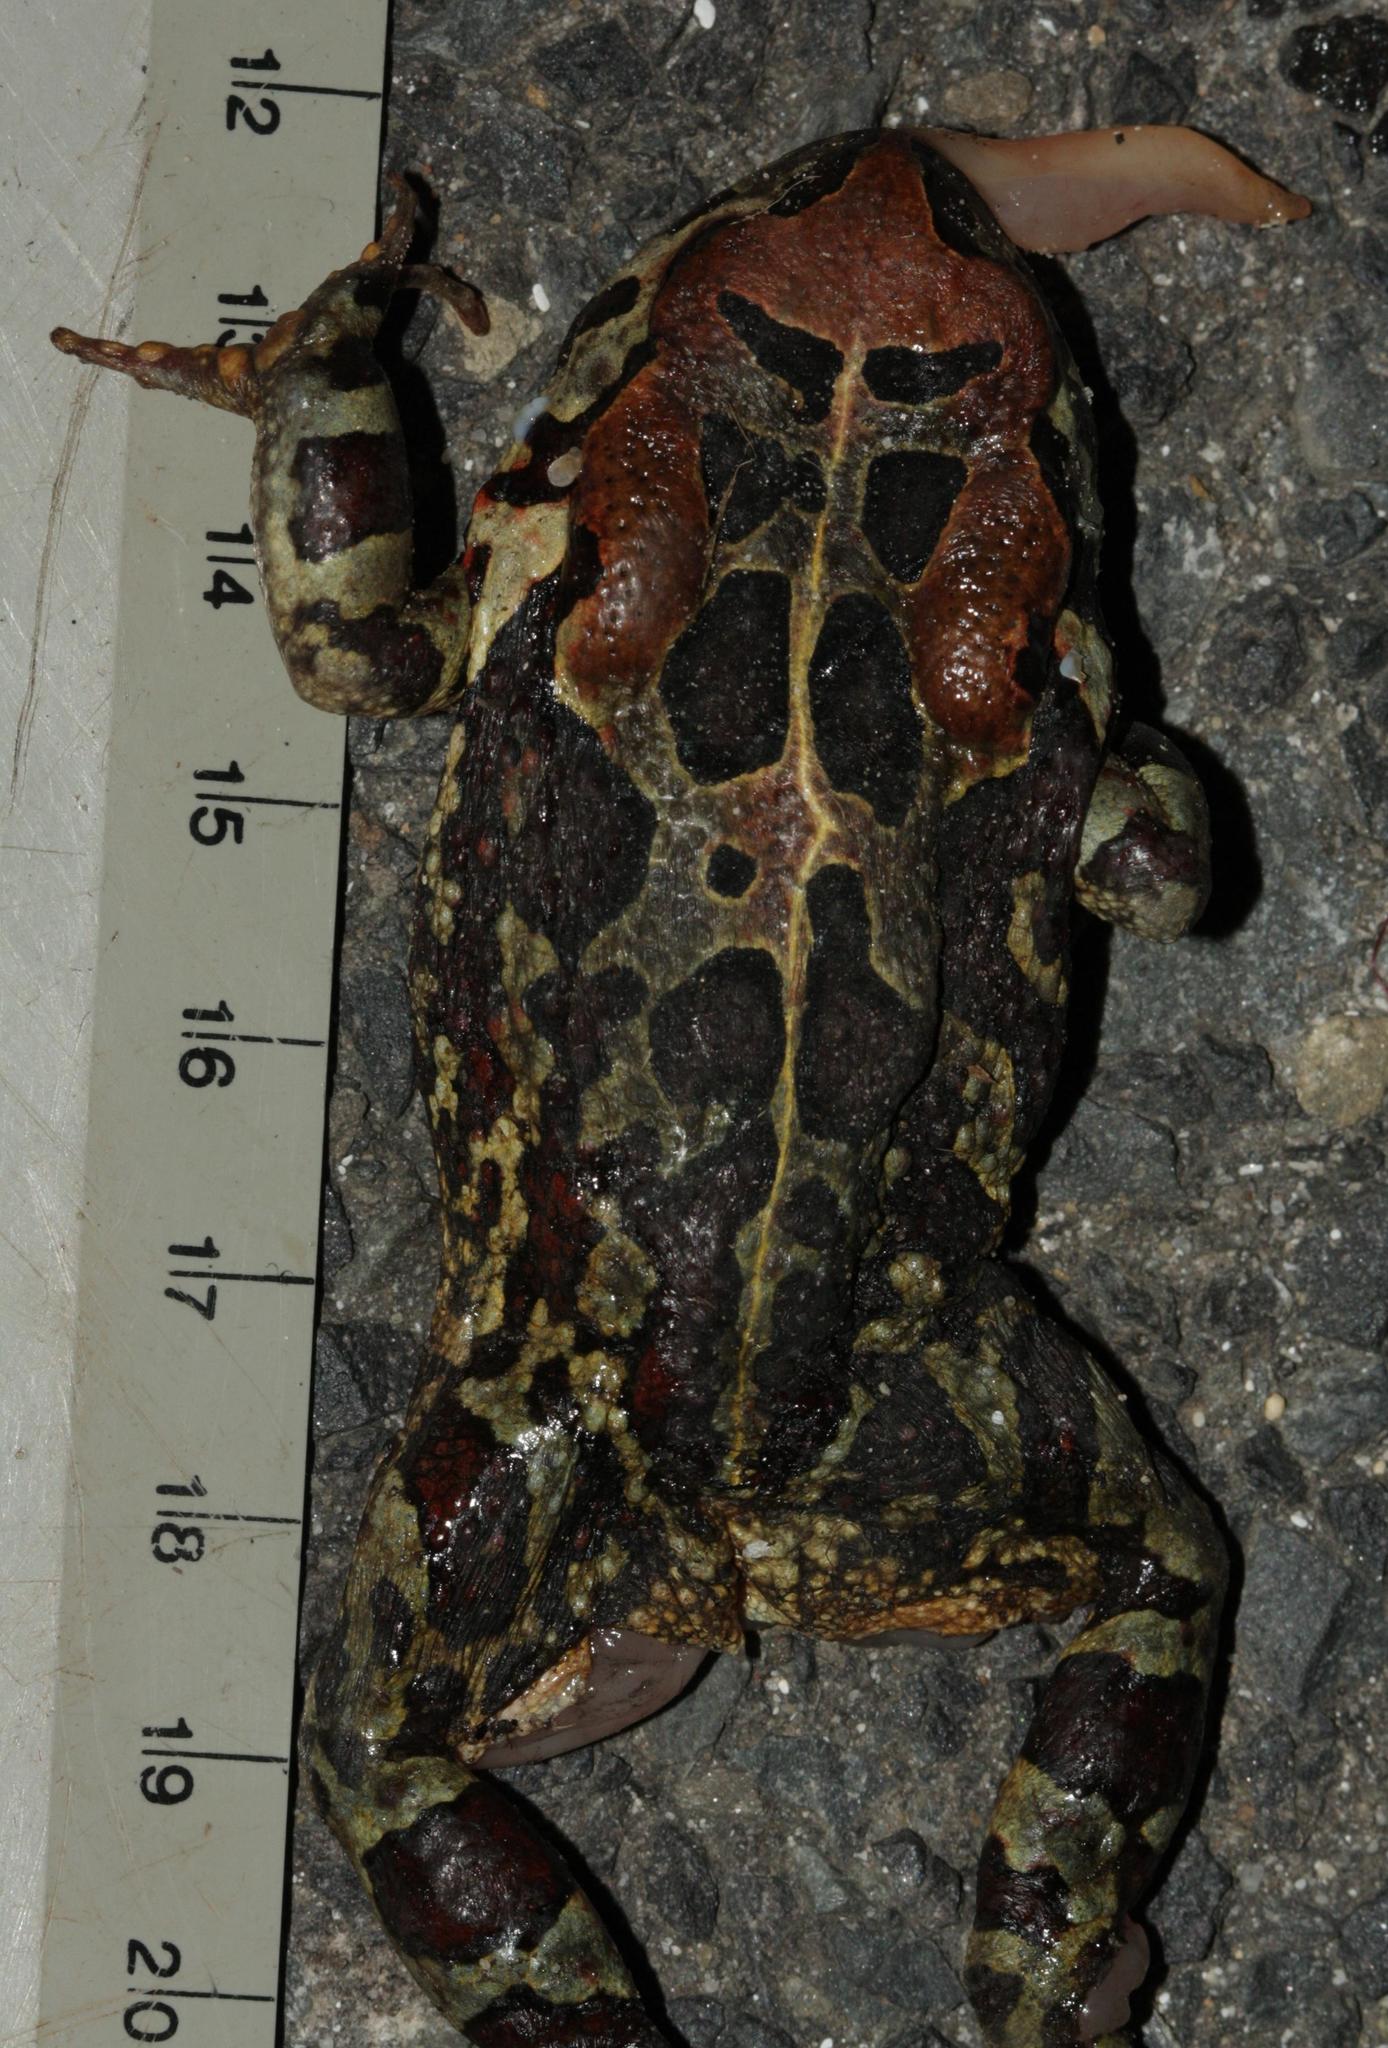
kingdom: Animalia
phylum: Chordata
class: Amphibia
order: Anura
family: Bufonidae
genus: Sclerophrys
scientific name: Sclerophrys pantherina
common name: Panther toad
